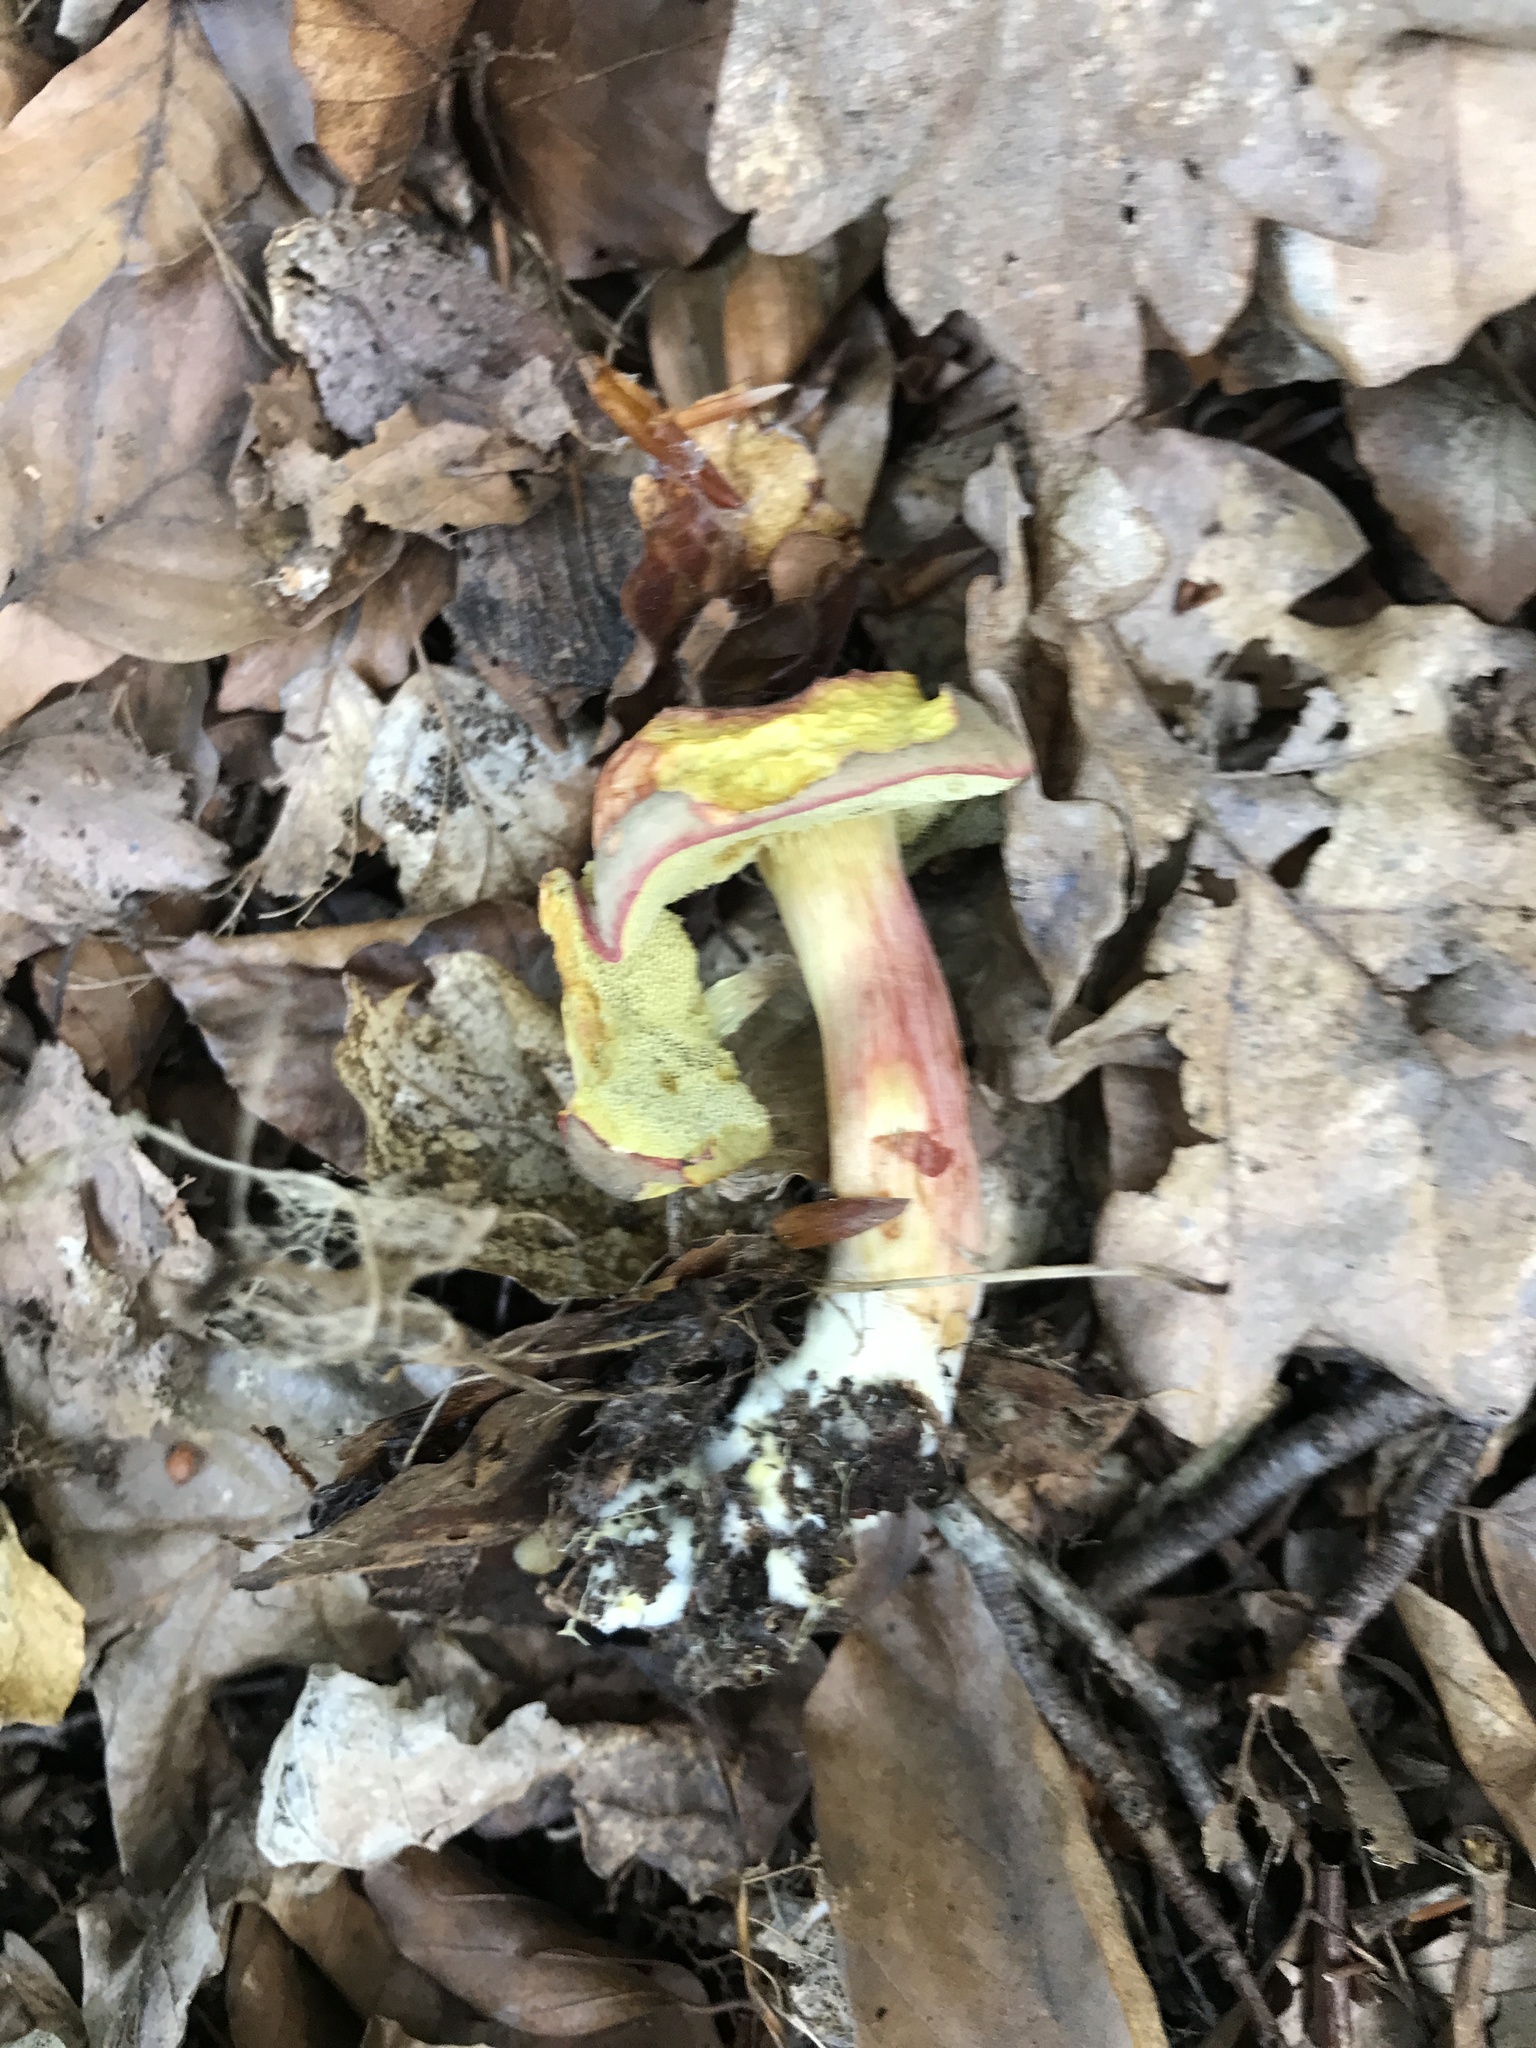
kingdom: Fungi
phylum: Basidiomycota
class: Agaricomycetes
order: Boletales
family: Boletaceae
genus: Xerocomellus
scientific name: Xerocomellus chrysenteron
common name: Red-cracking bolete
